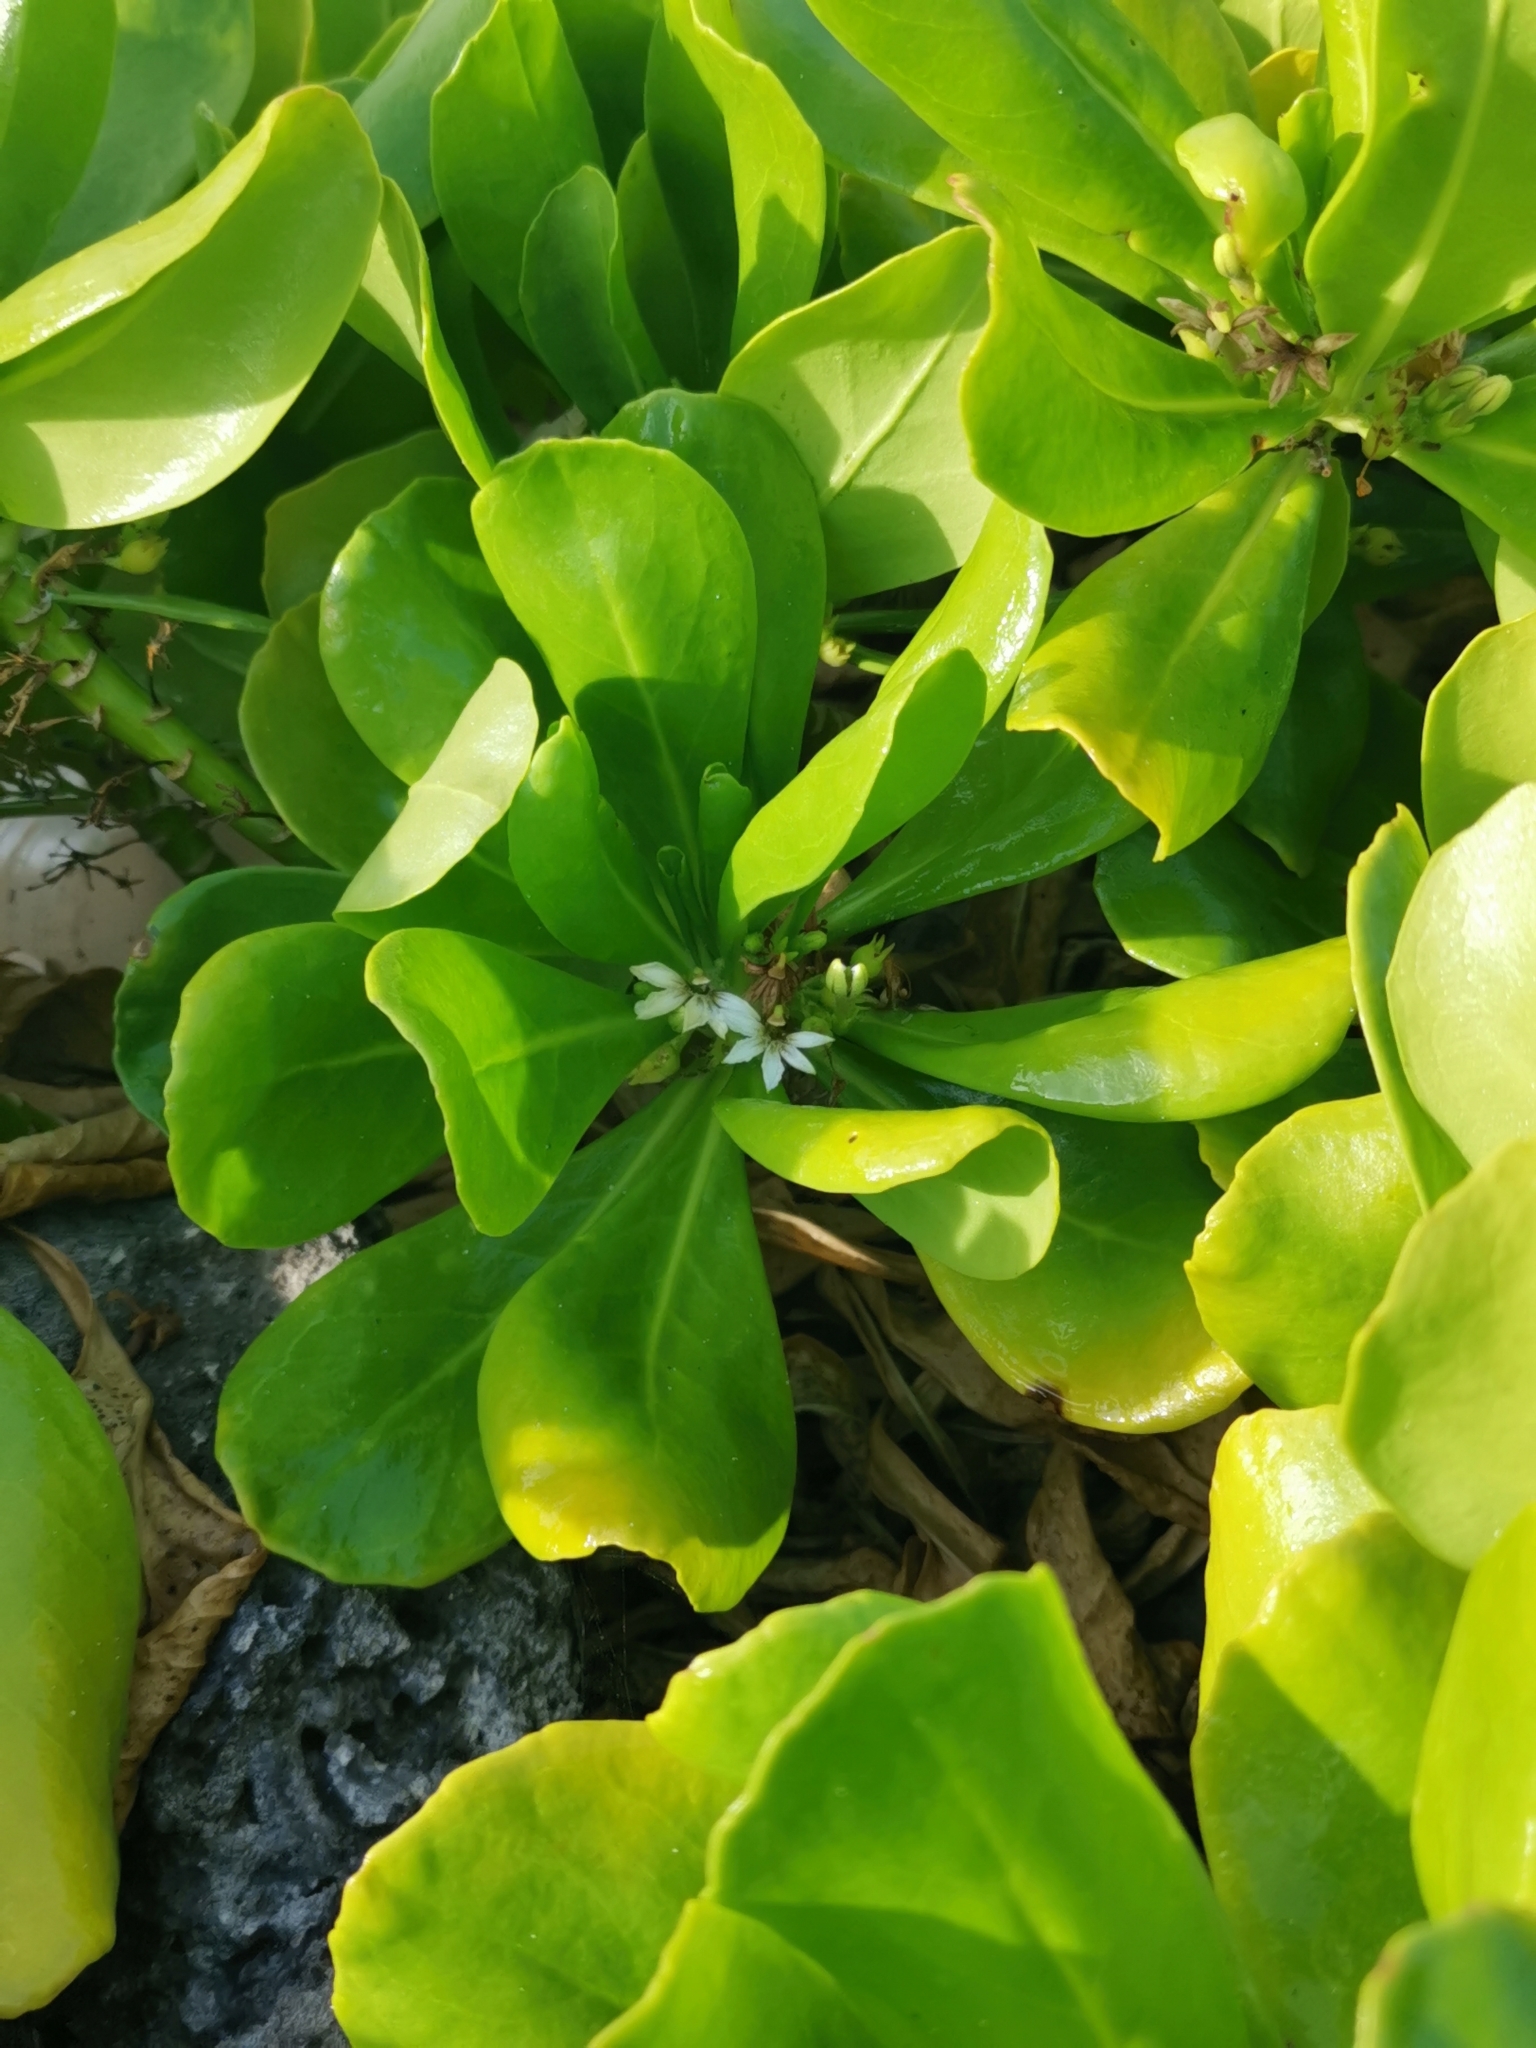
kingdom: Plantae
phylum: Tracheophyta
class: Magnoliopsida
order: Asterales
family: Goodeniaceae
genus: Scaevola
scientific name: Scaevola taccada
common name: Sea lettucetree
